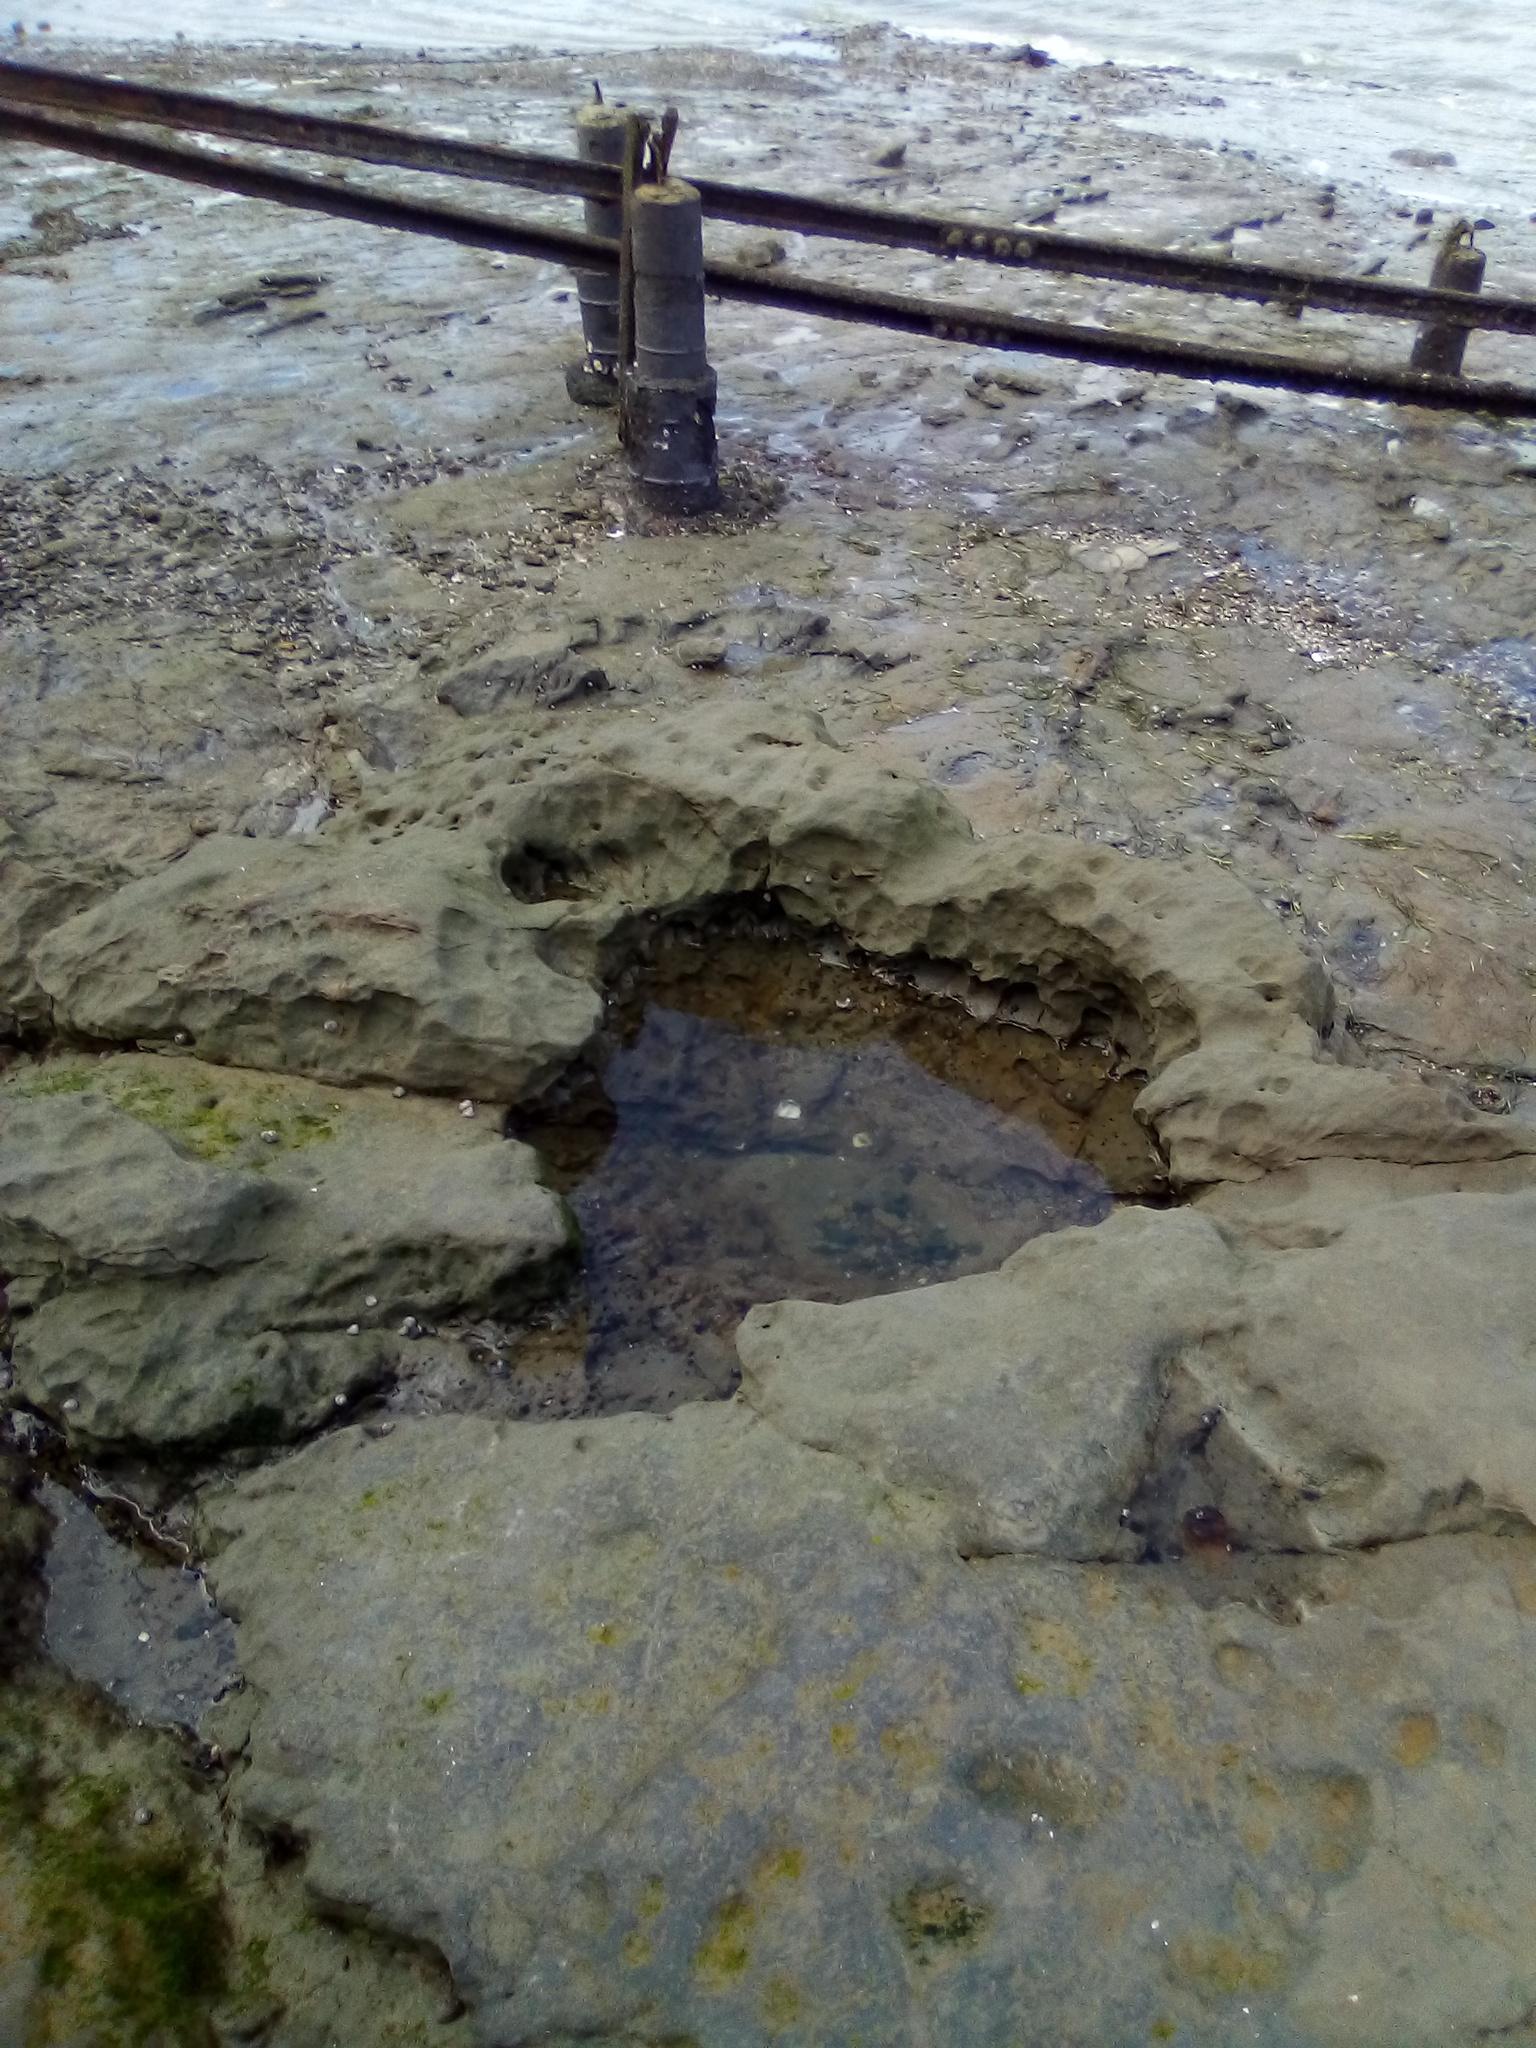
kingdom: Animalia
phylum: Mollusca
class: Gastropoda
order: Cephalaspidea
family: Haminoeidae
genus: Papawera
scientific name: Papawera zelandiae
